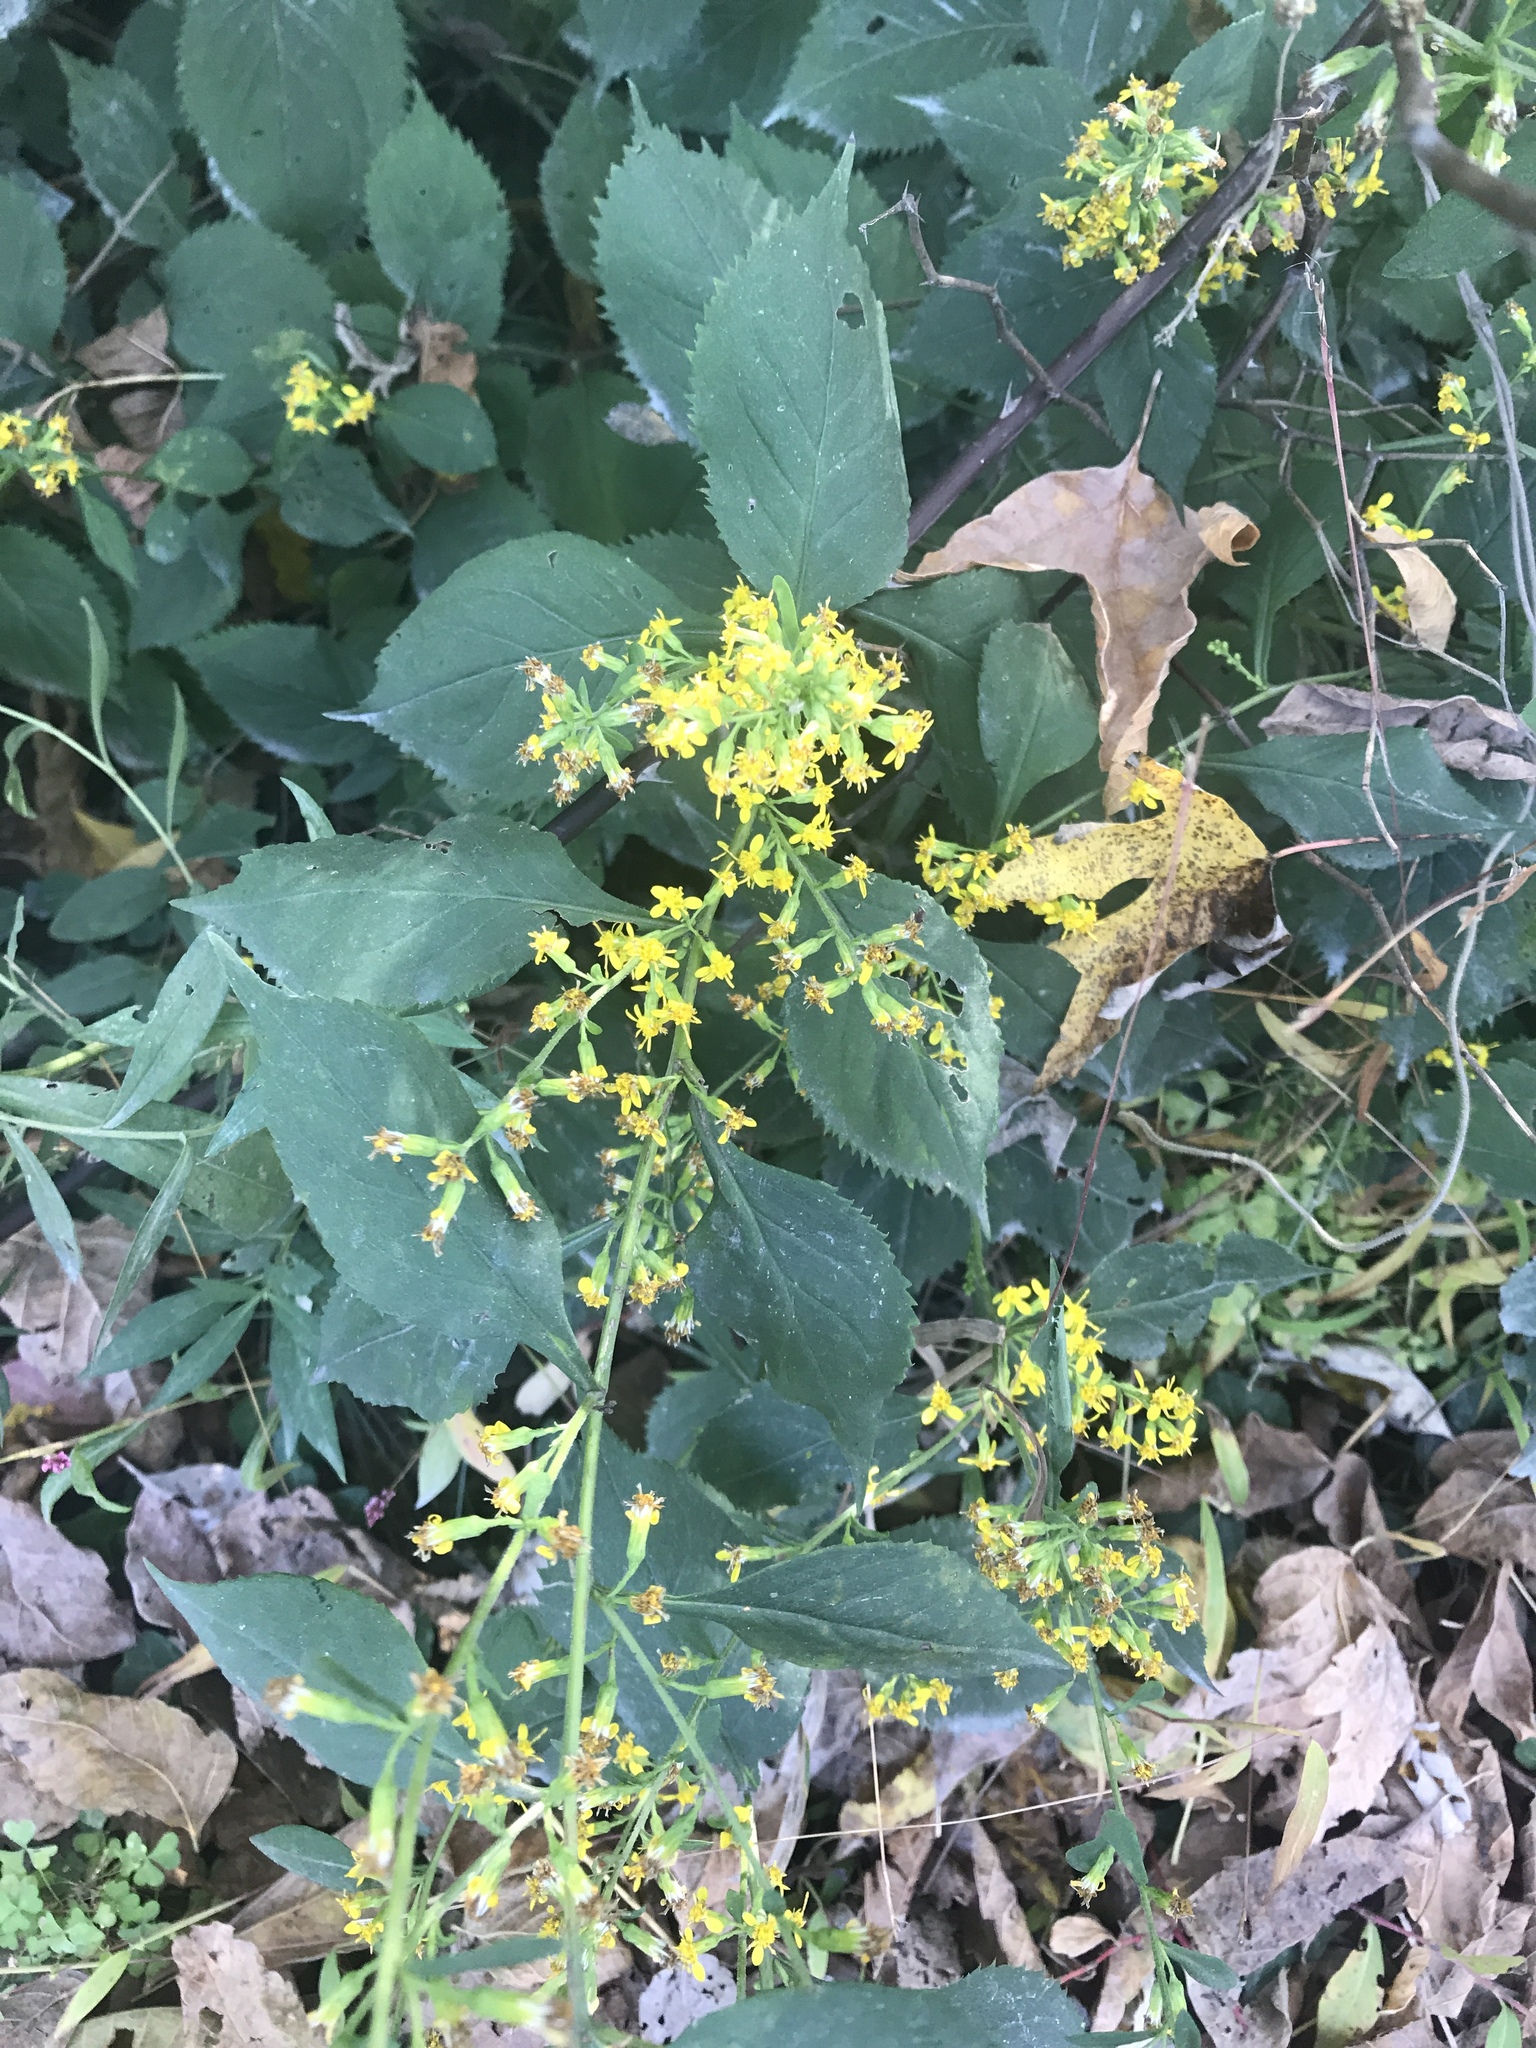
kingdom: Plantae
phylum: Tracheophyta
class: Magnoliopsida
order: Asterales
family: Asteraceae
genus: Solidago
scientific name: Solidago flexicaulis
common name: Zig-zag goldenrod
